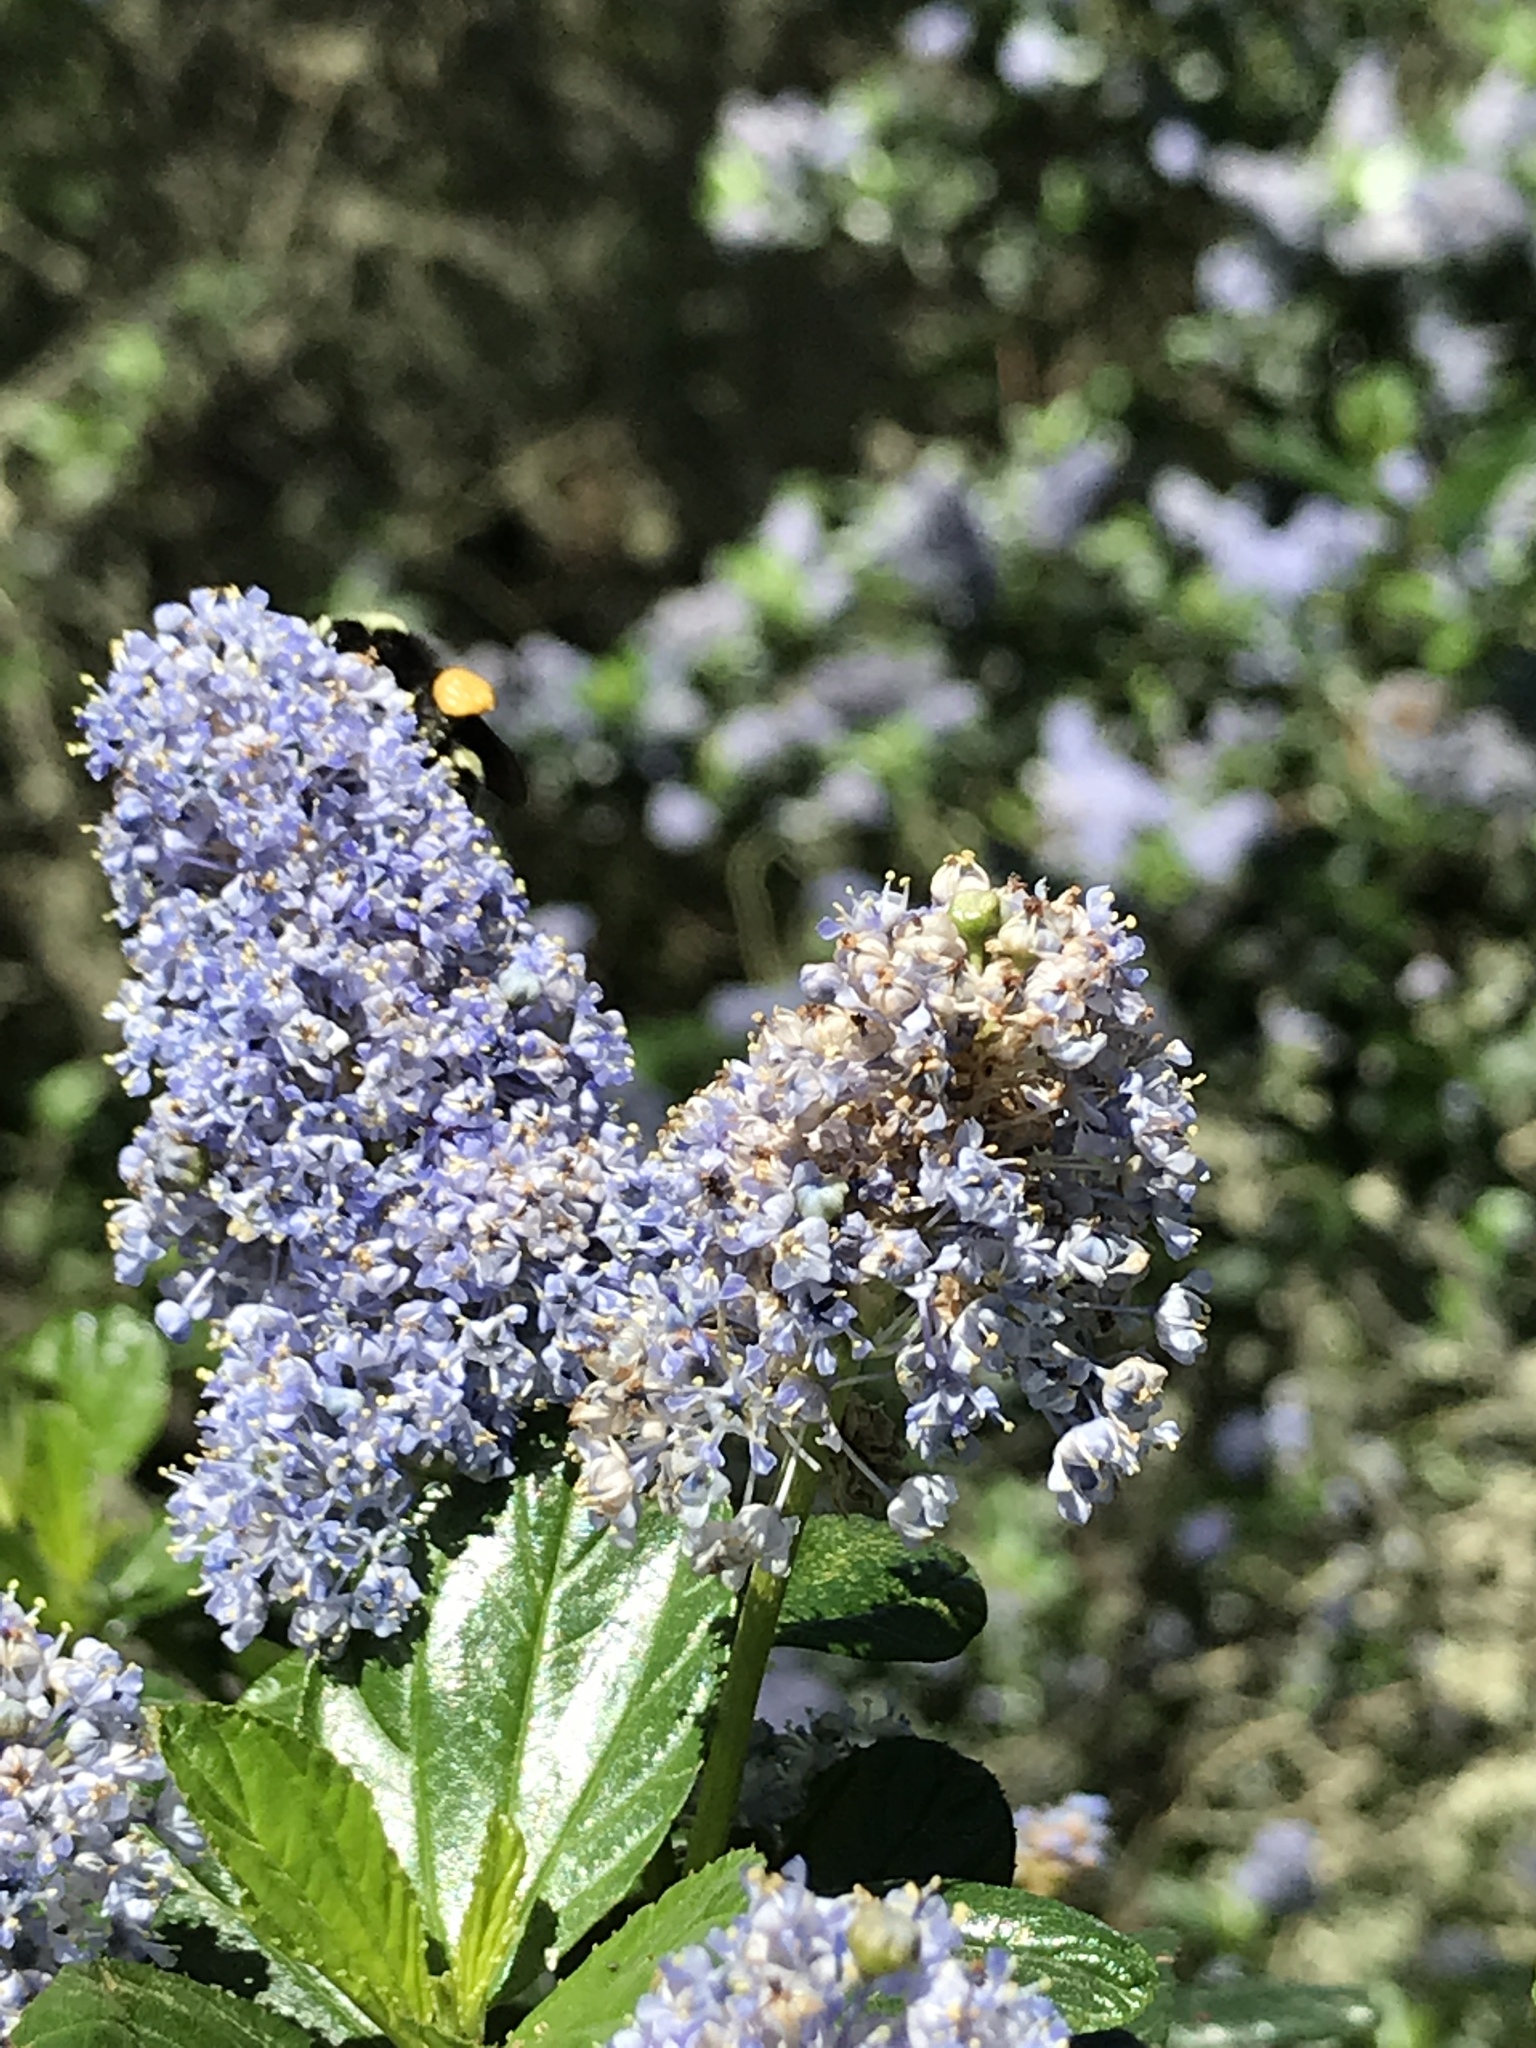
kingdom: Animalia
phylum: Arthropoda
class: Insecta
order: Hymenoptera
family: Apidae
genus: Pyrobombus
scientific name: Pyrobombus
